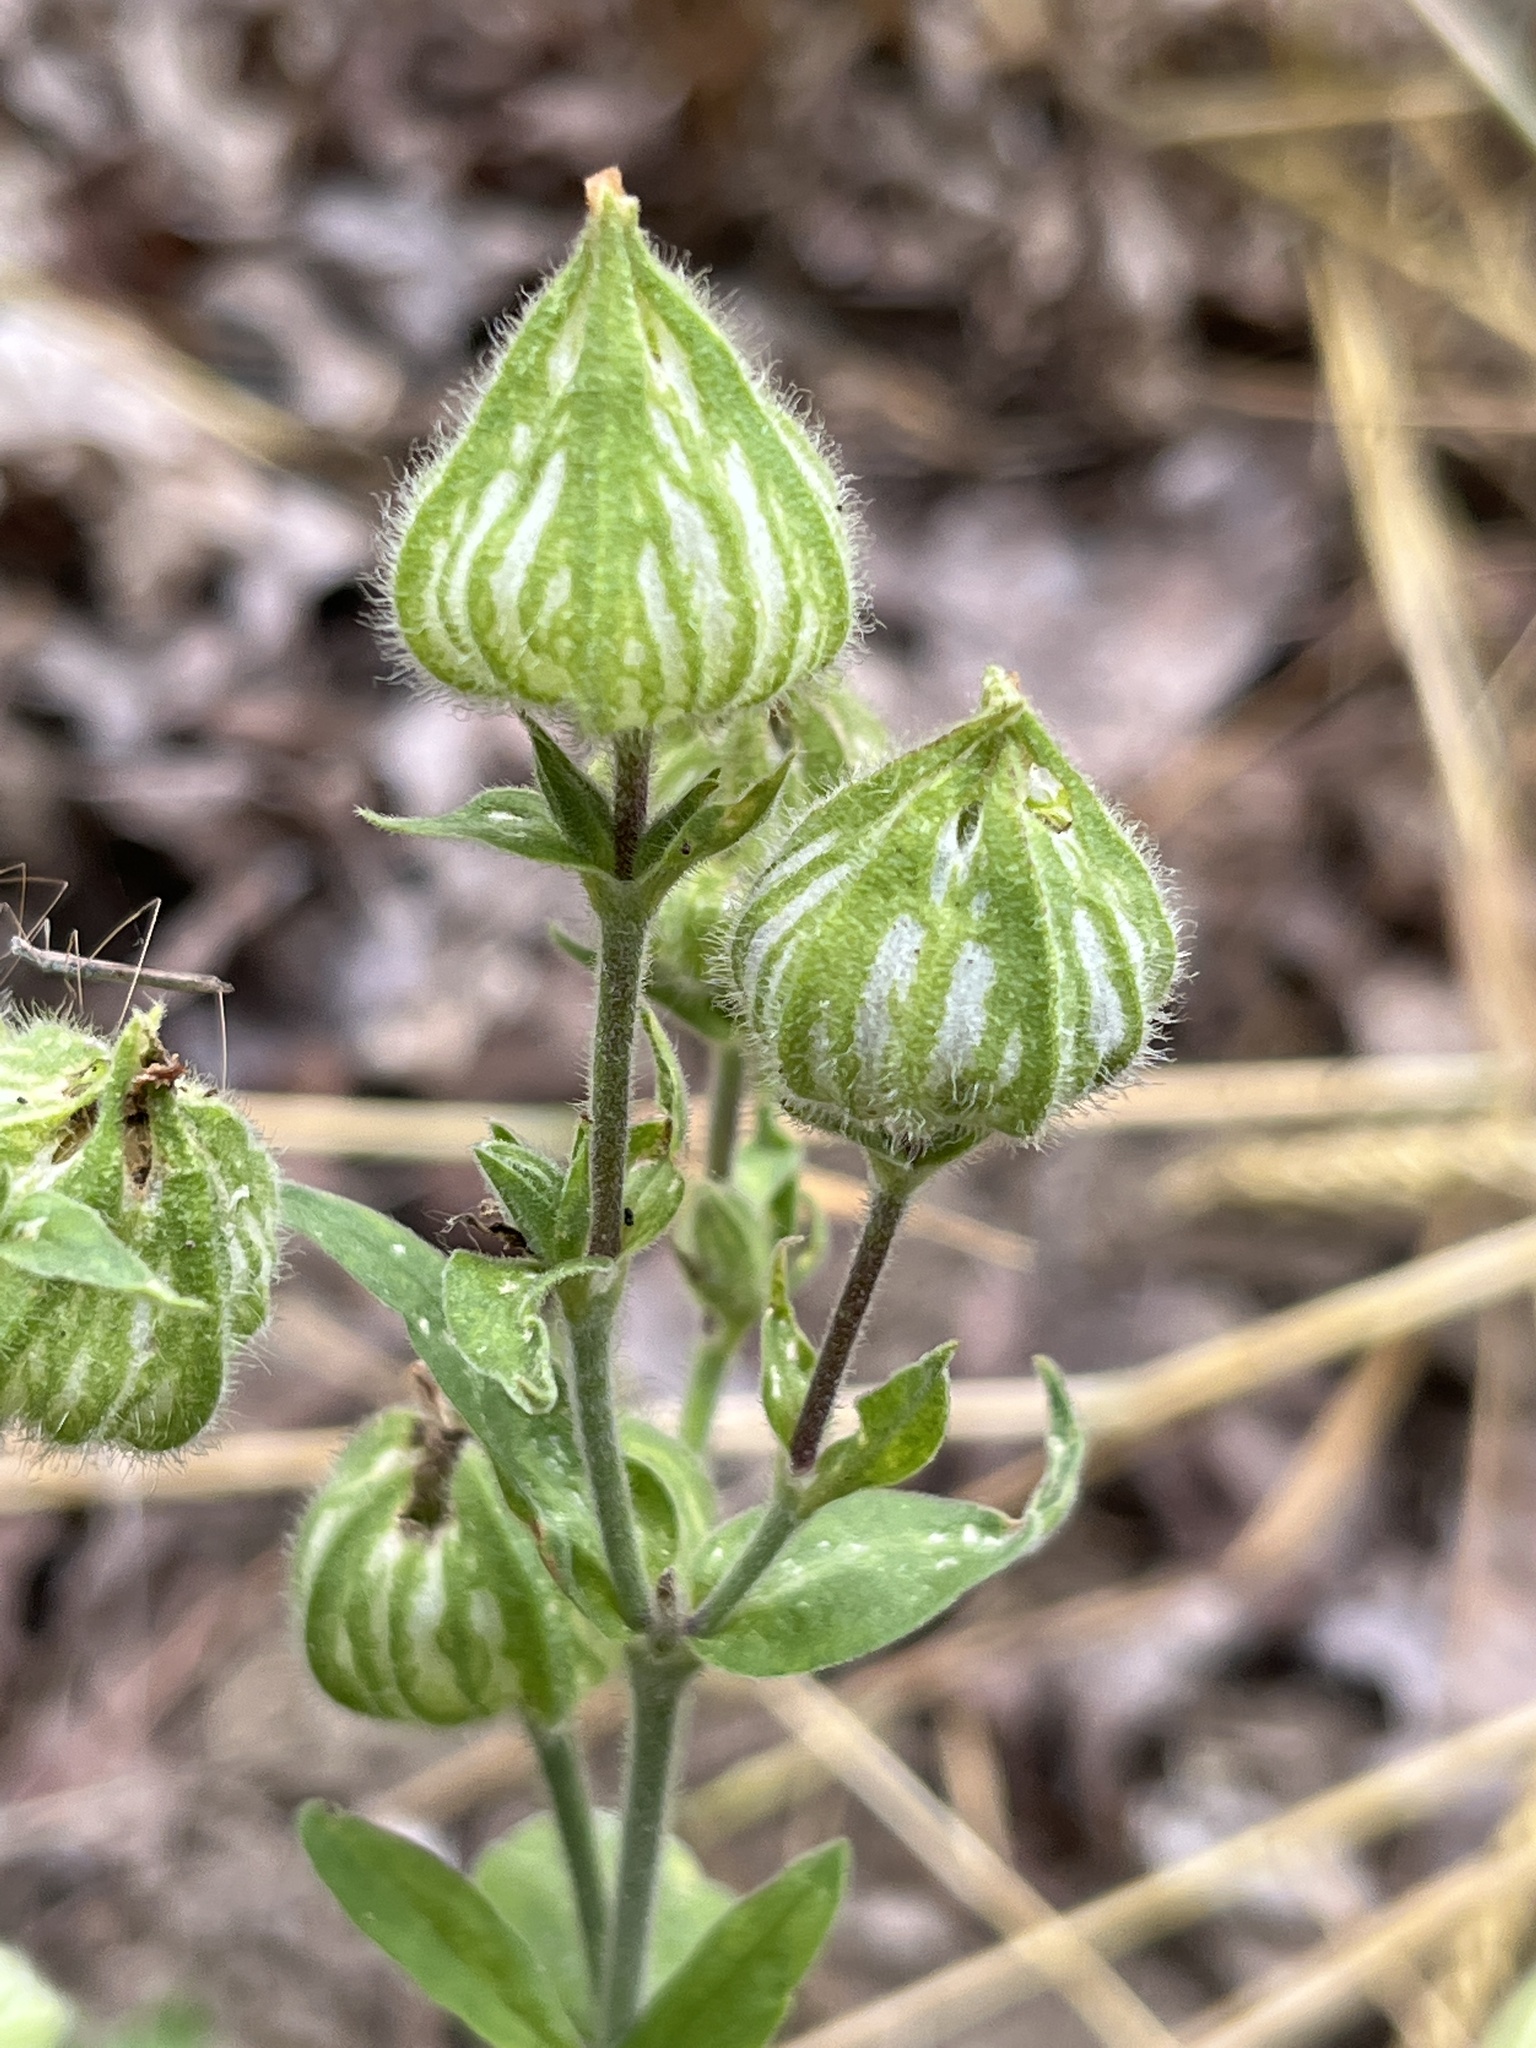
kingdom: Plantae
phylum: Tracheophyta
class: Magnoliopsida
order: Caryophyllales
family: Caryophyllaceae
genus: Silene
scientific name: Silene latifolia
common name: White campion
